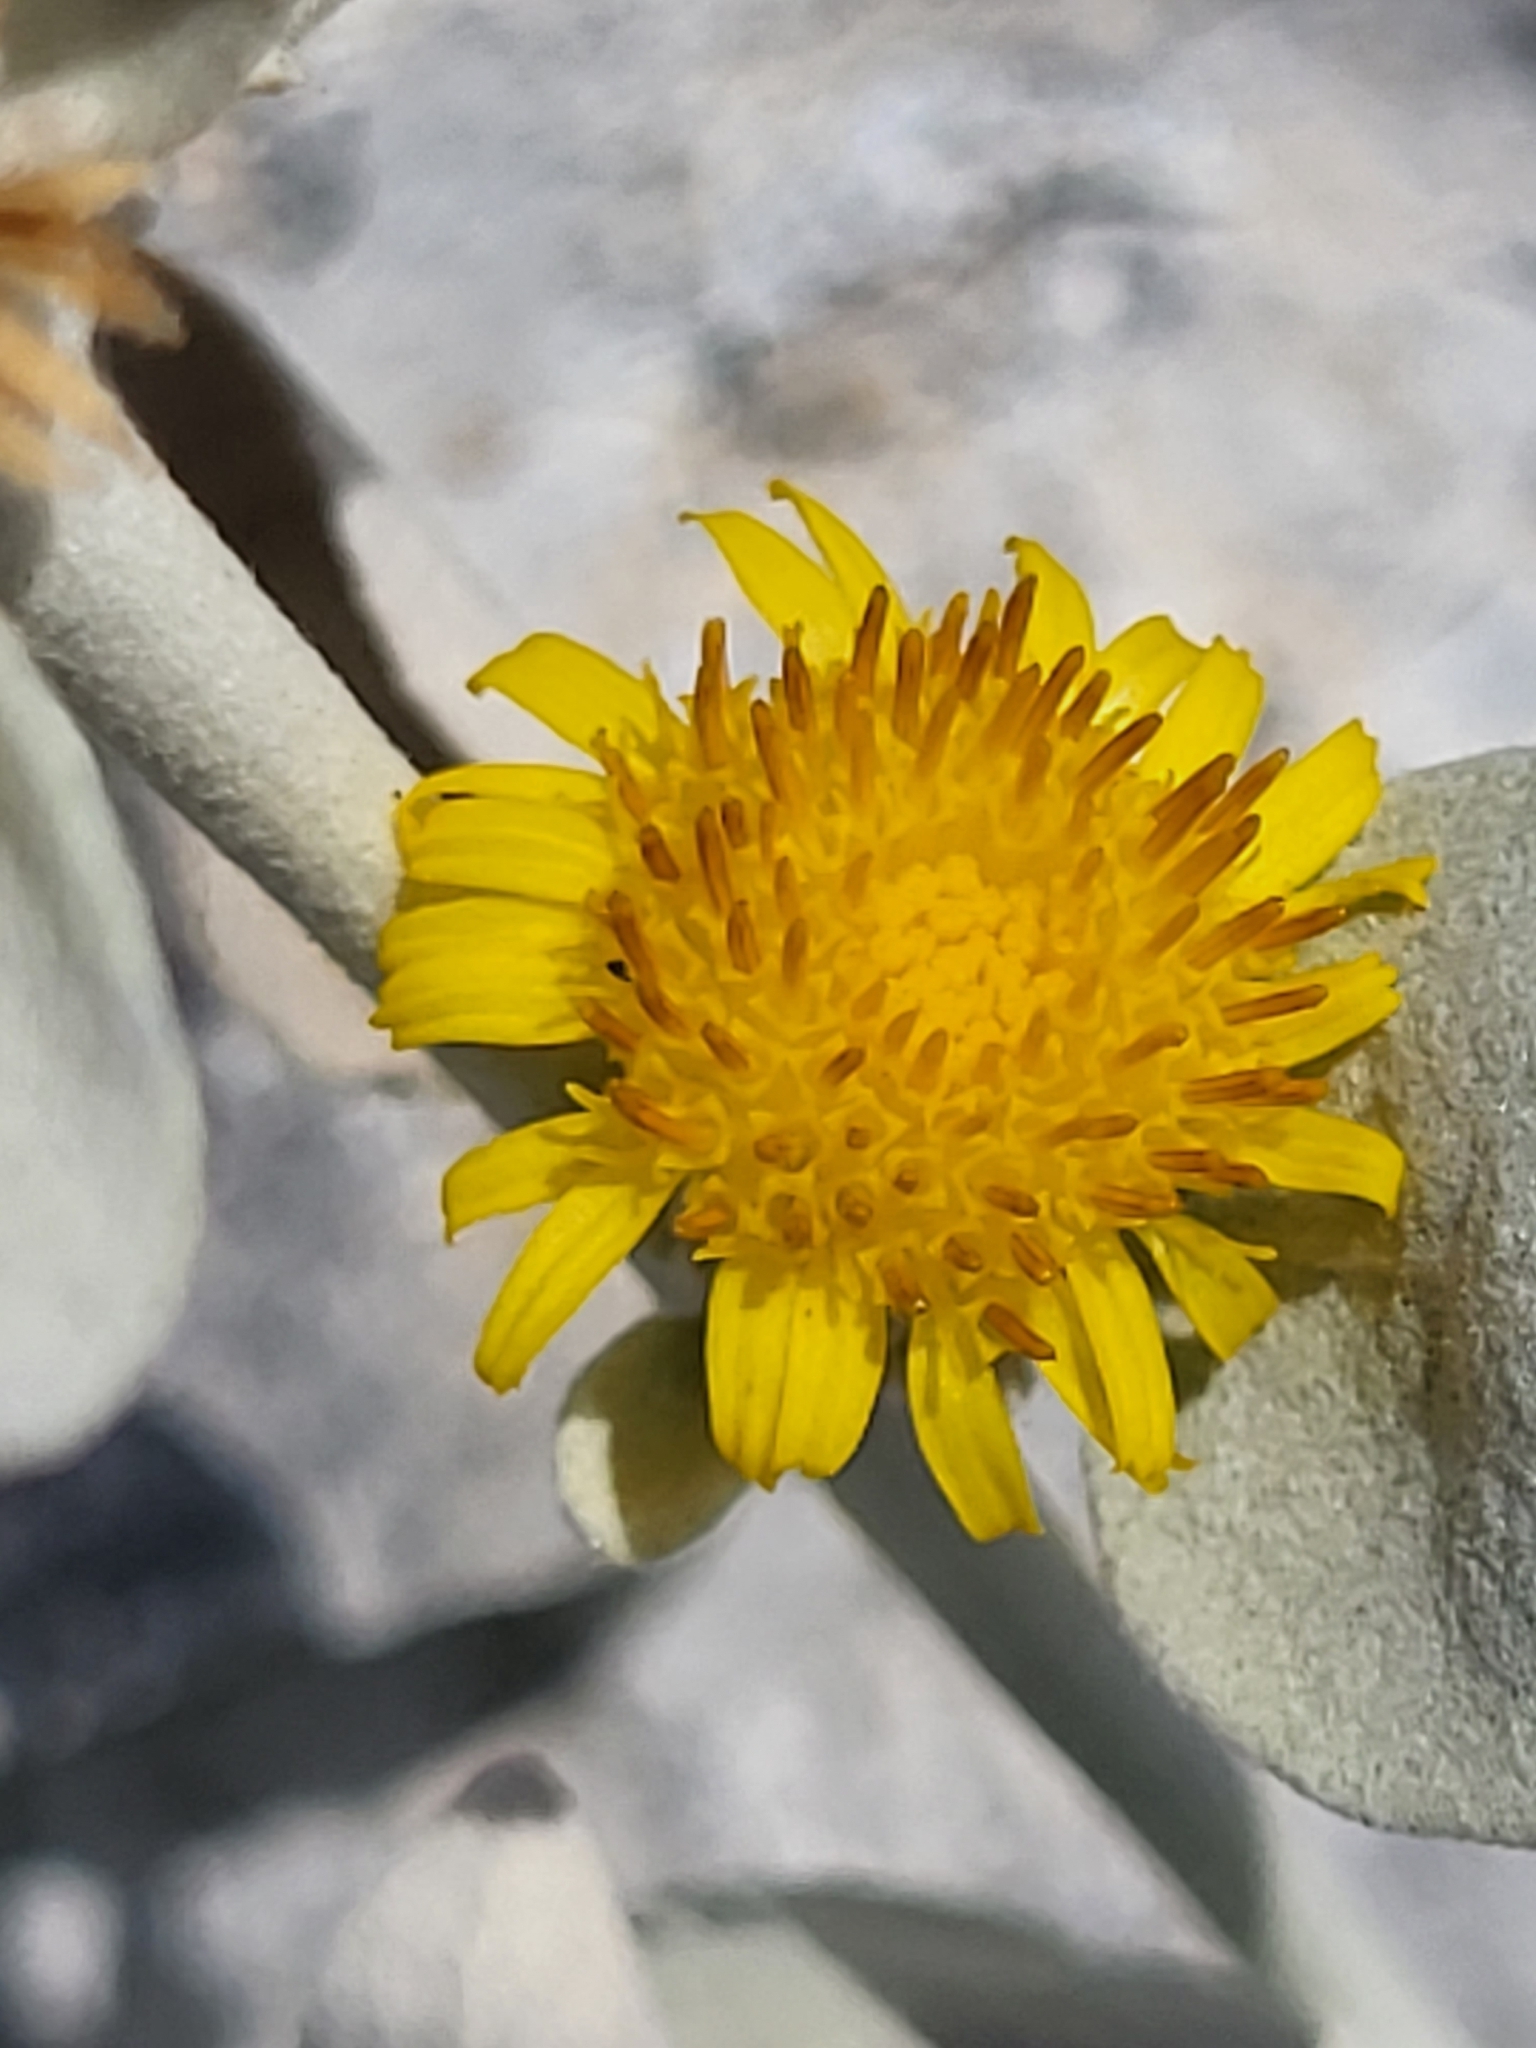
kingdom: Plantae
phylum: Tracheophyta
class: Magnoliopsida
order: Asterales
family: Asteraceae
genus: Pentanema
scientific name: Pentanema verbascifolium
